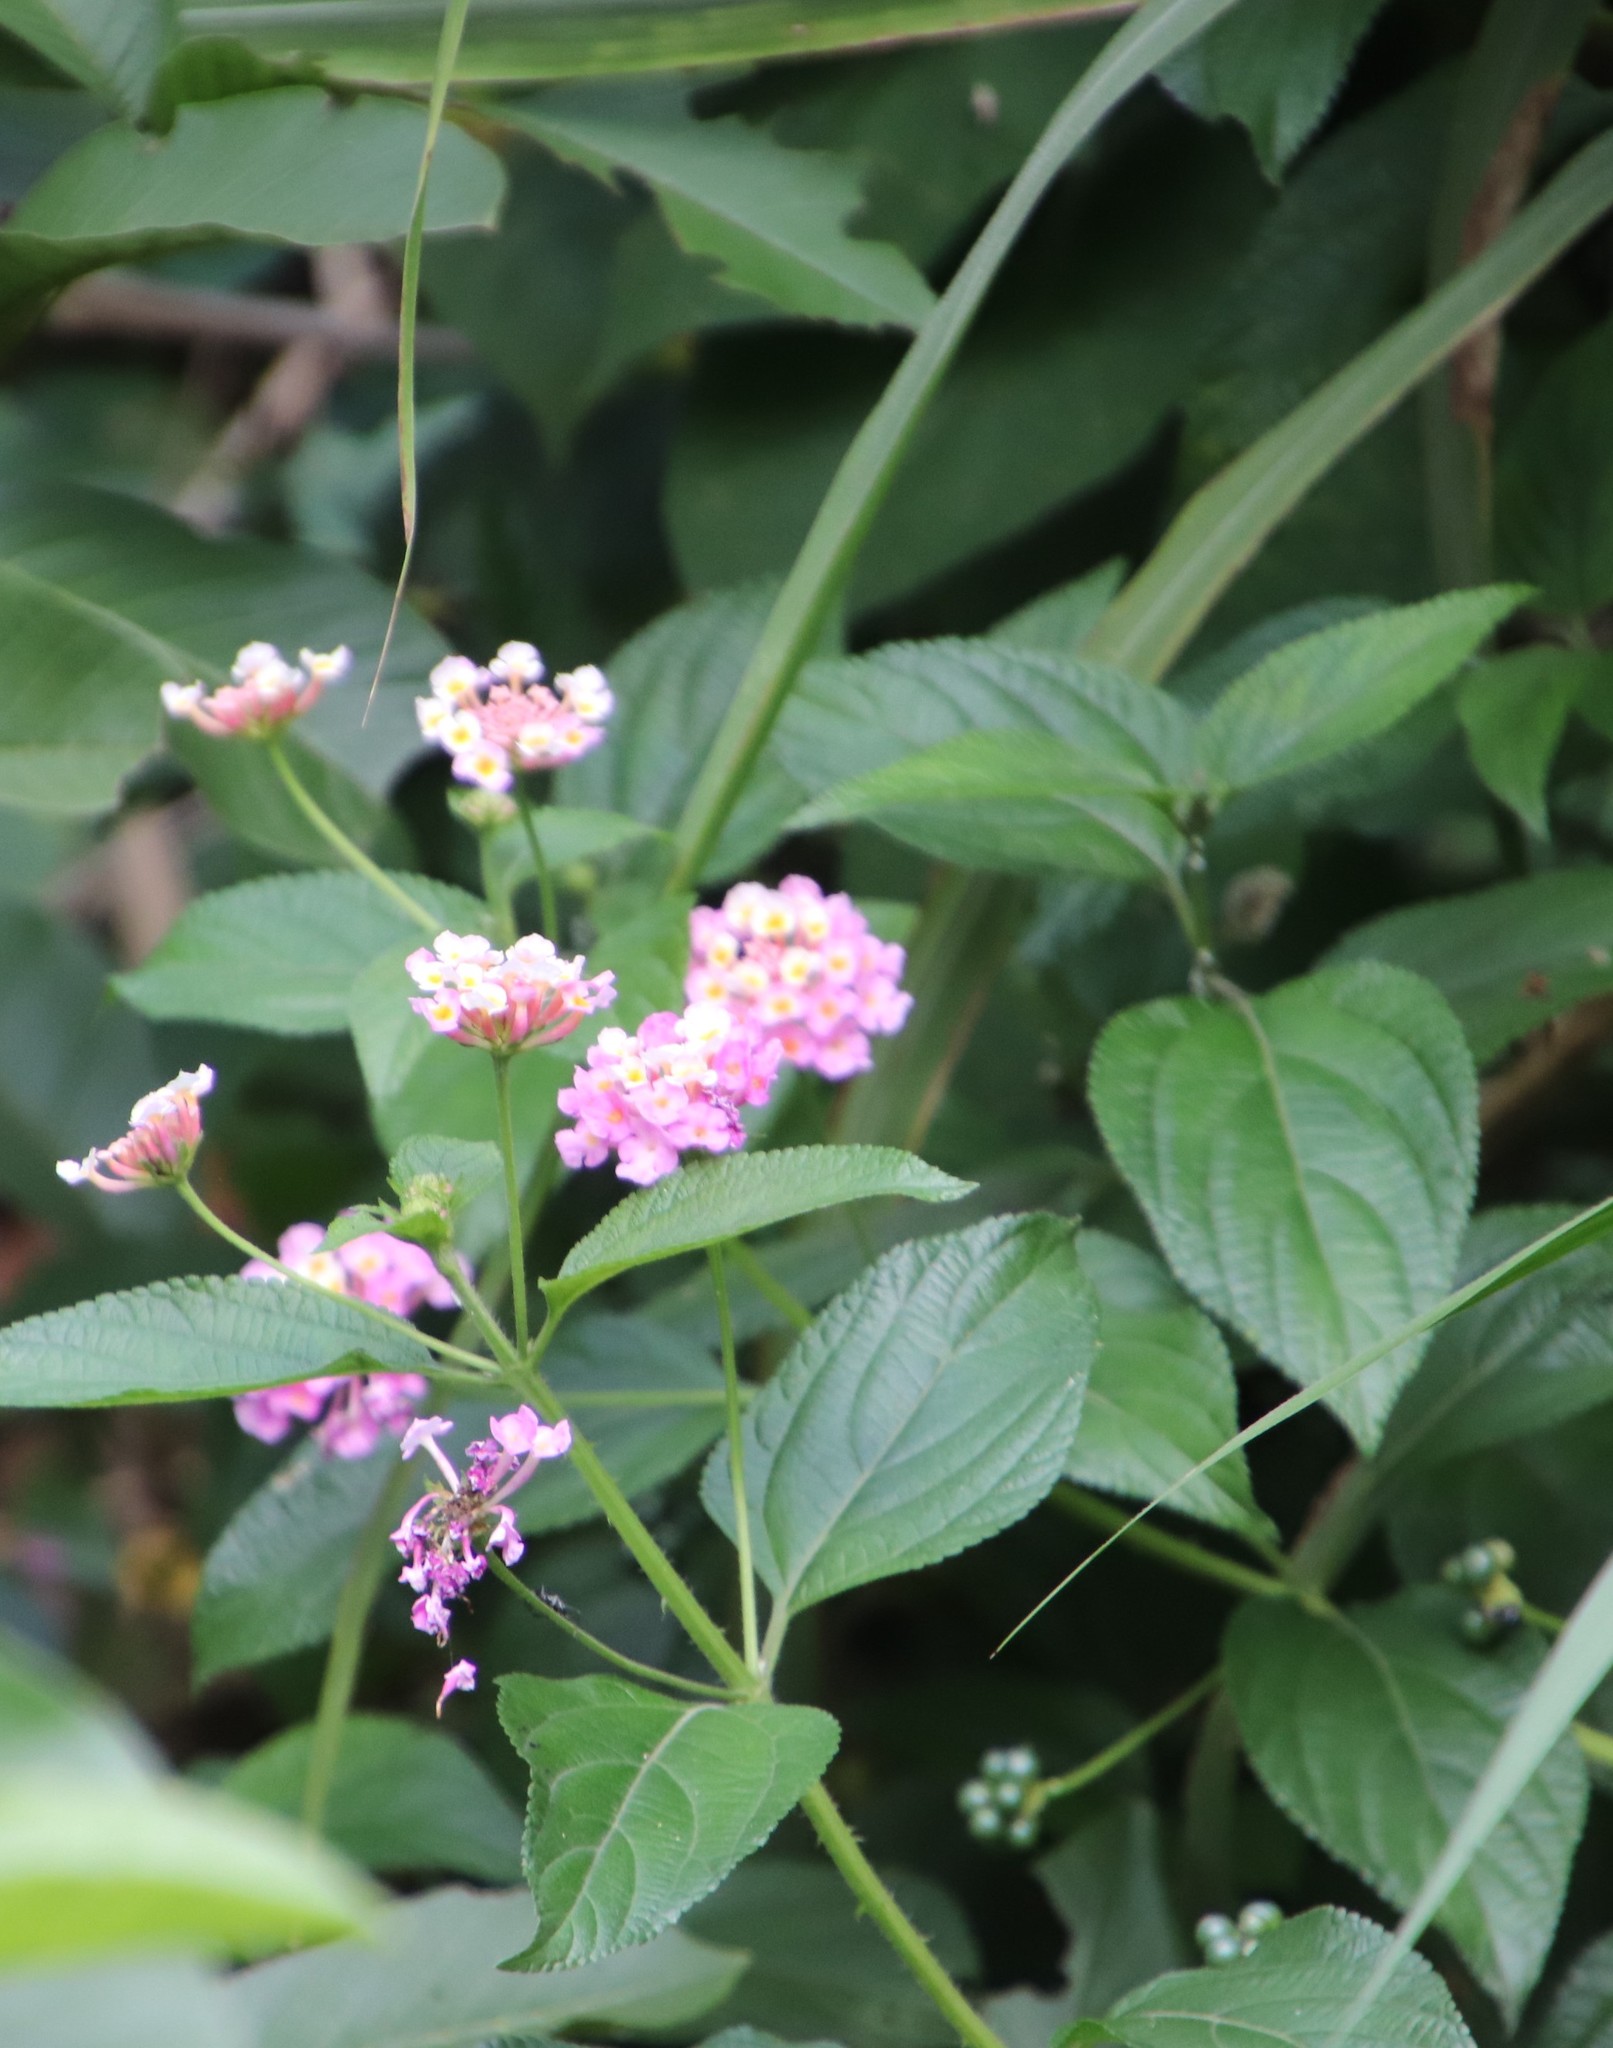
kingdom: Plantae
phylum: Tracheophyta
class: Magnoliopsida
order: Lamiales
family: Verbenaceae
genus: Lantana
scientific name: Lantana camara
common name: Lantana
